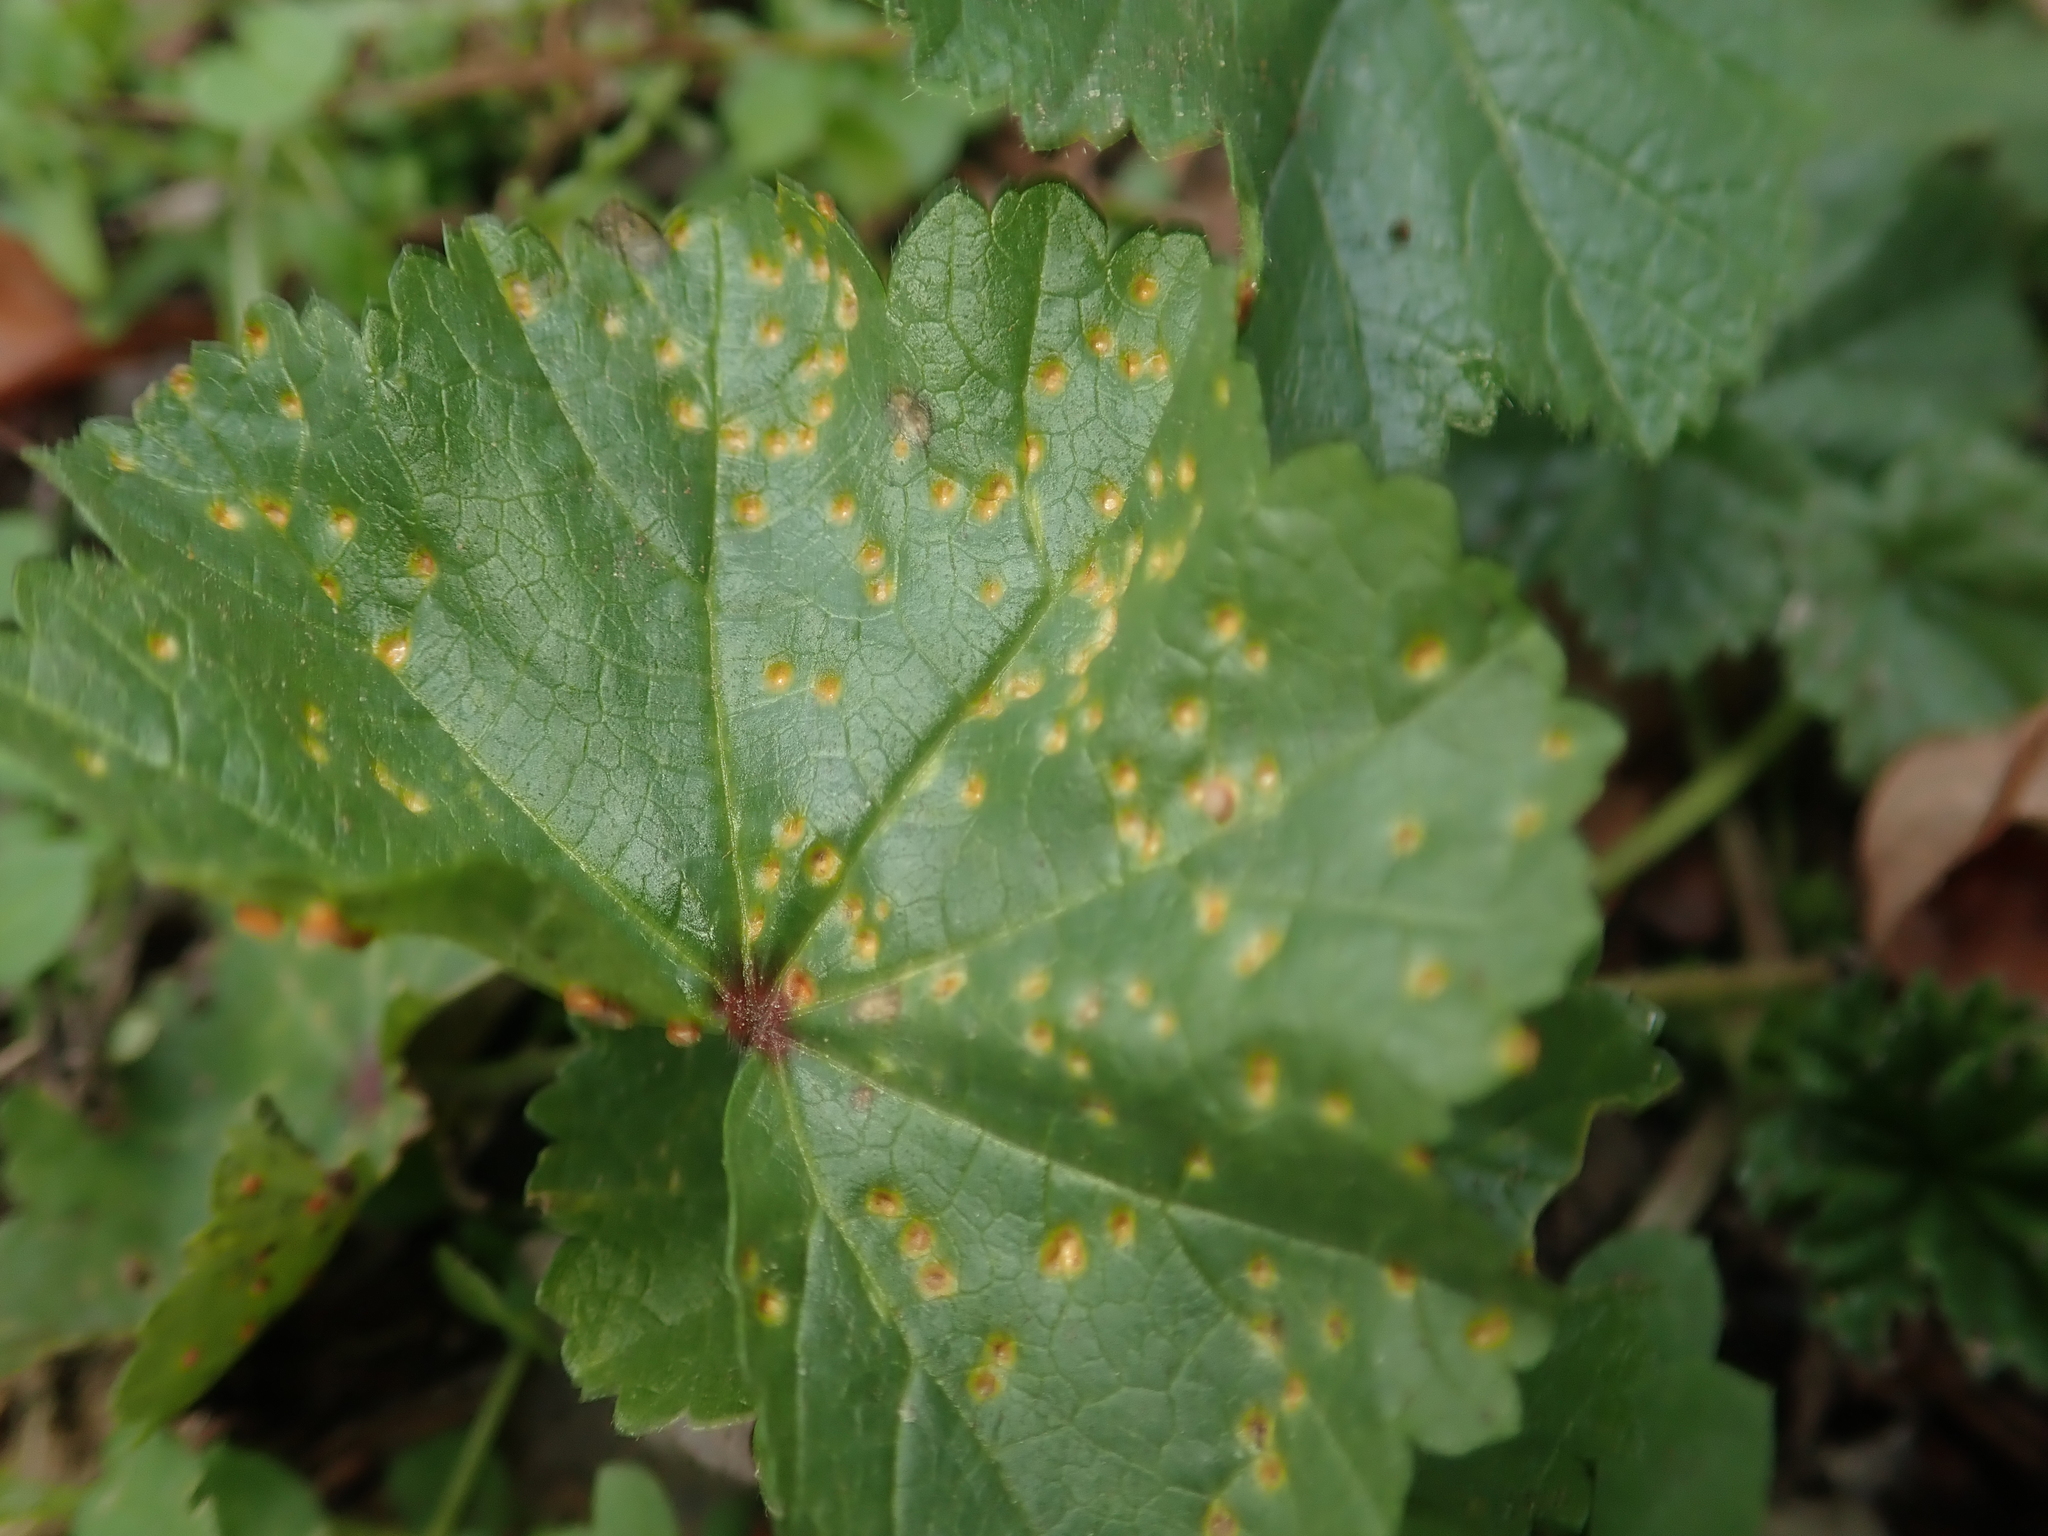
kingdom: Fungi
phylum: Basidiomycota
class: Pucciniomycetes
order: Pucciniales
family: Pucciniaceae
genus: Puccinia
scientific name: Puccinia malvacearum
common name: Hollyhock rust
